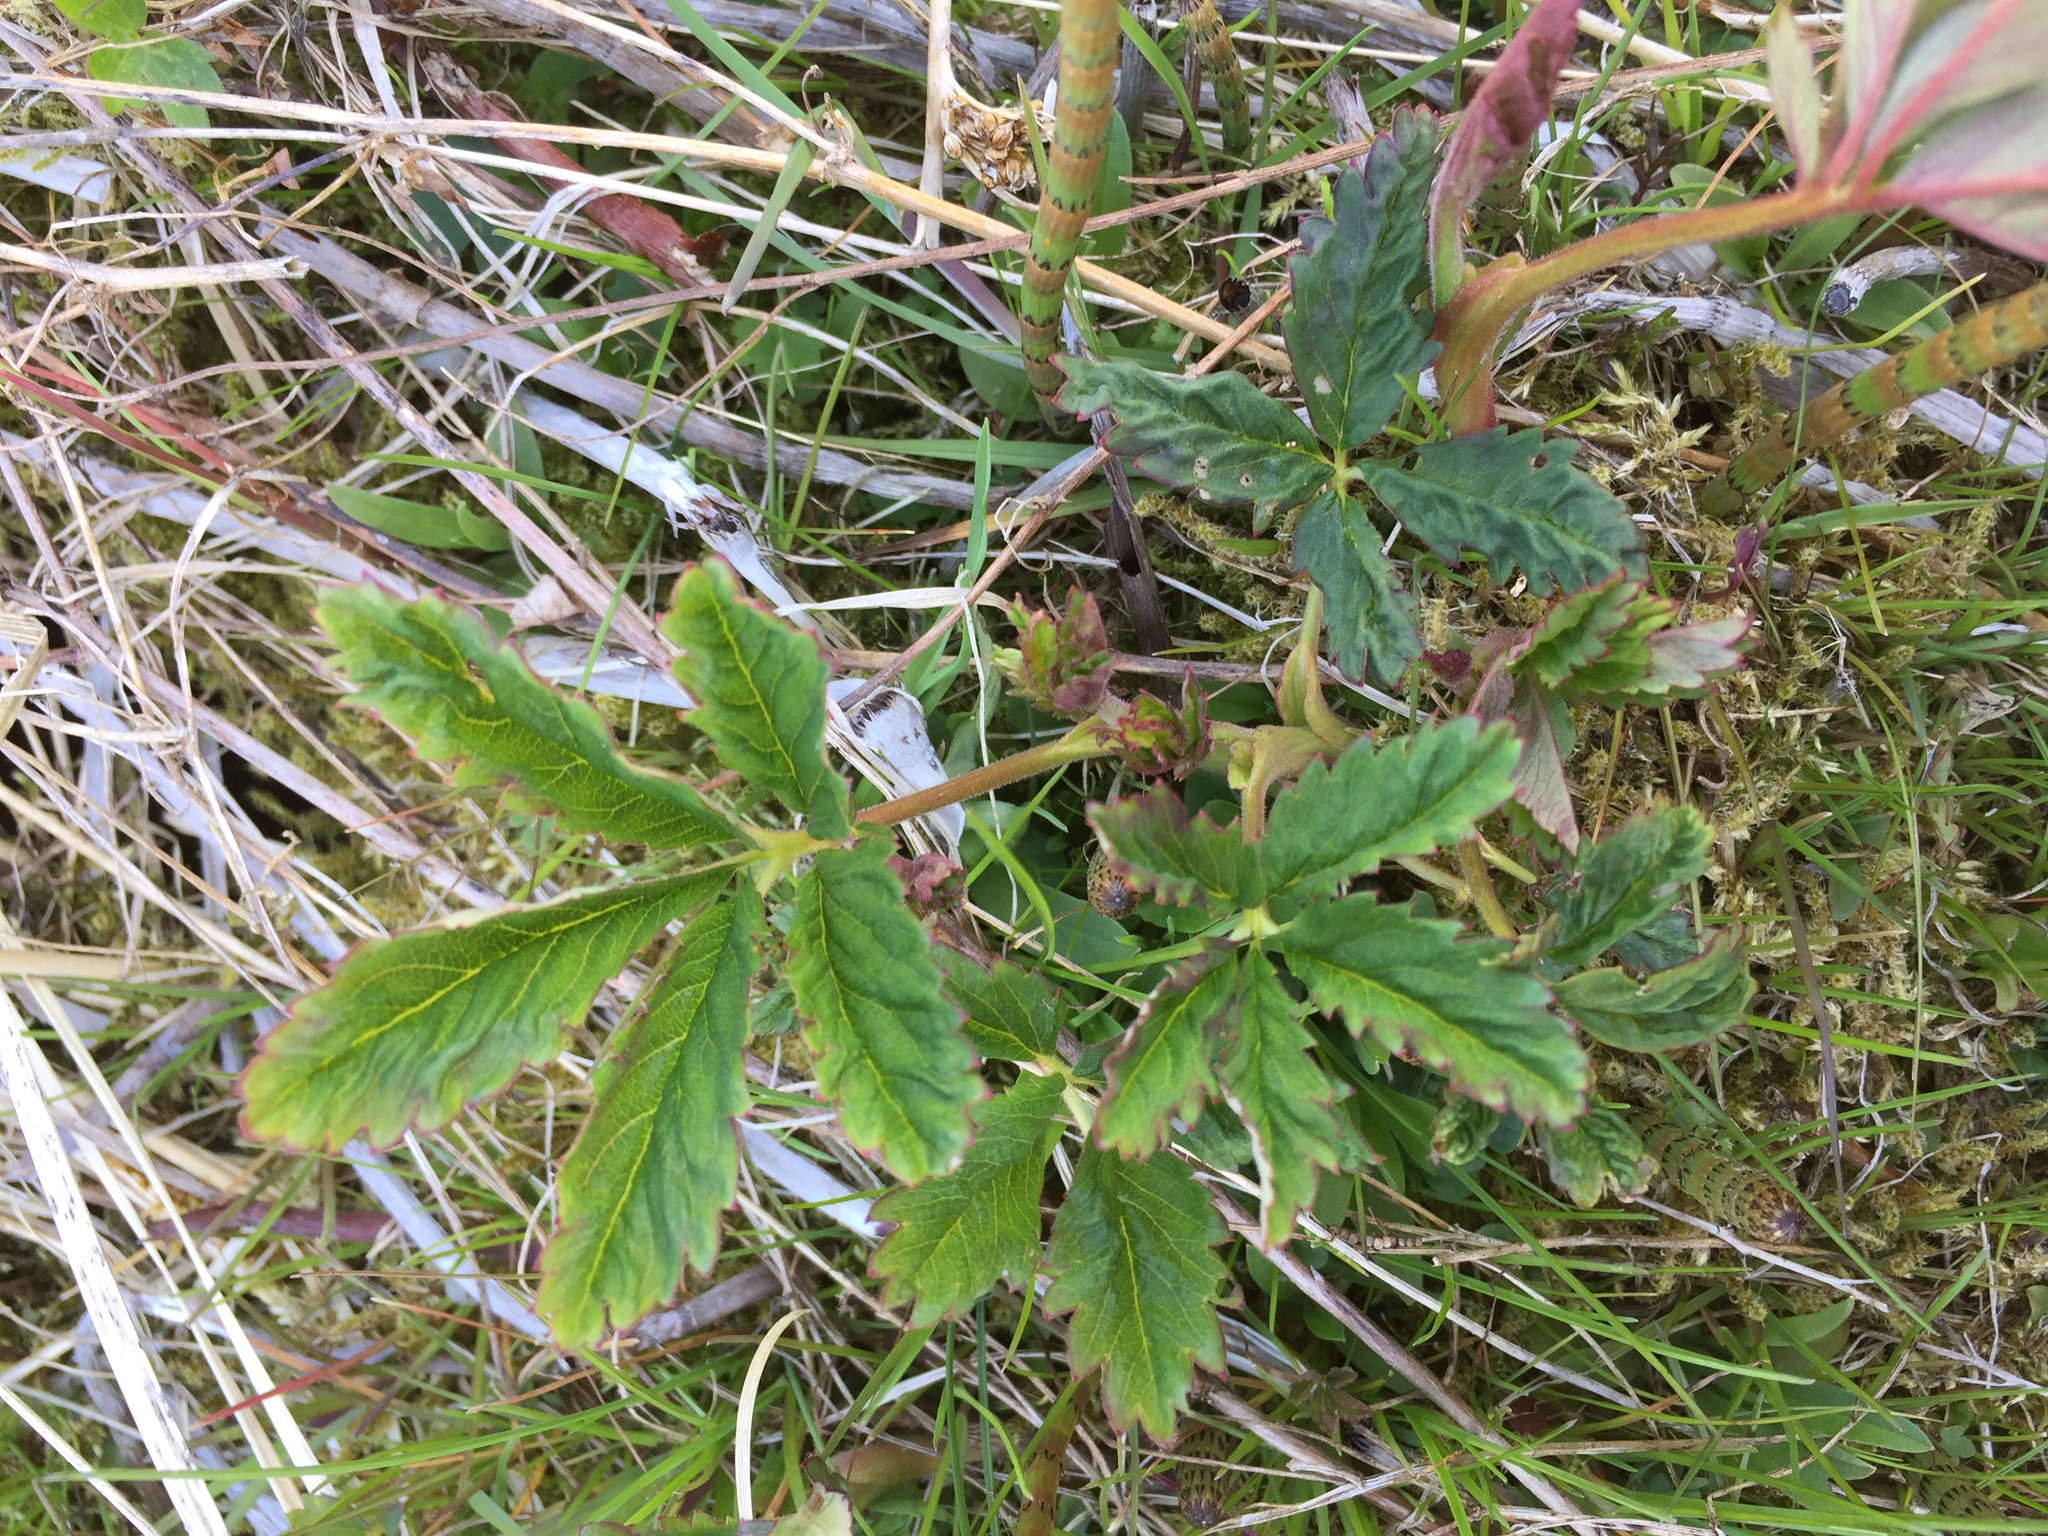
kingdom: Plantae
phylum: Tracheophyta
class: Magnoliopsida
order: Rosales
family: Rosaceae
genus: Comarum
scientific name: Comarum palustre
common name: Marsh cinquefoil
